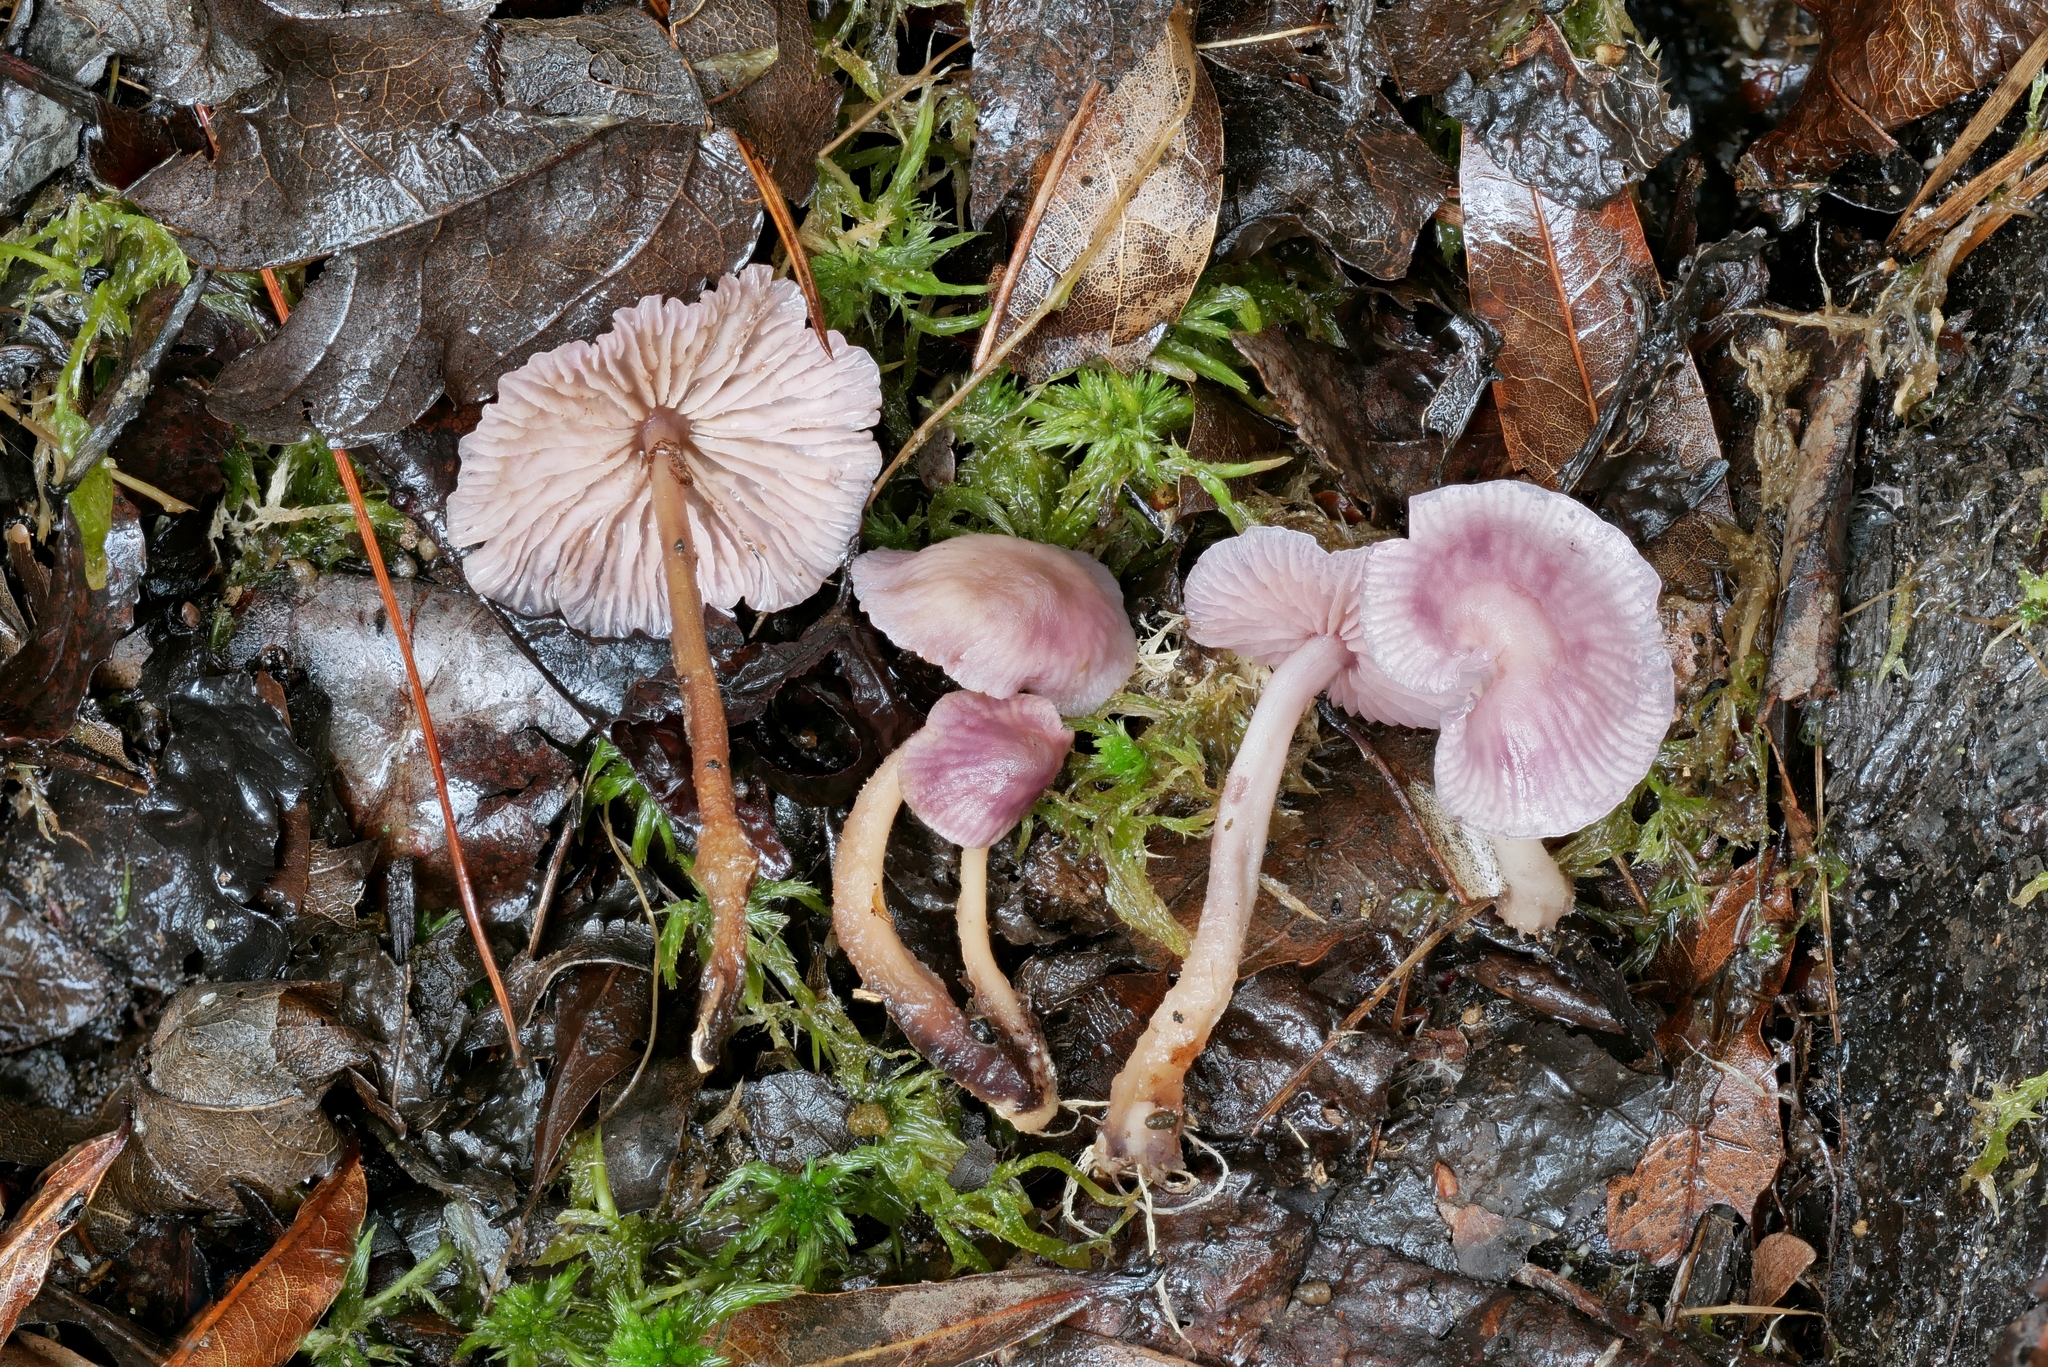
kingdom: Fungi
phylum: Basidiomycota
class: Agaricomycetes
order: Agaricales
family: Omphalotaceae
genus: Gymnopus
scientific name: Gymnopus iocephalus
